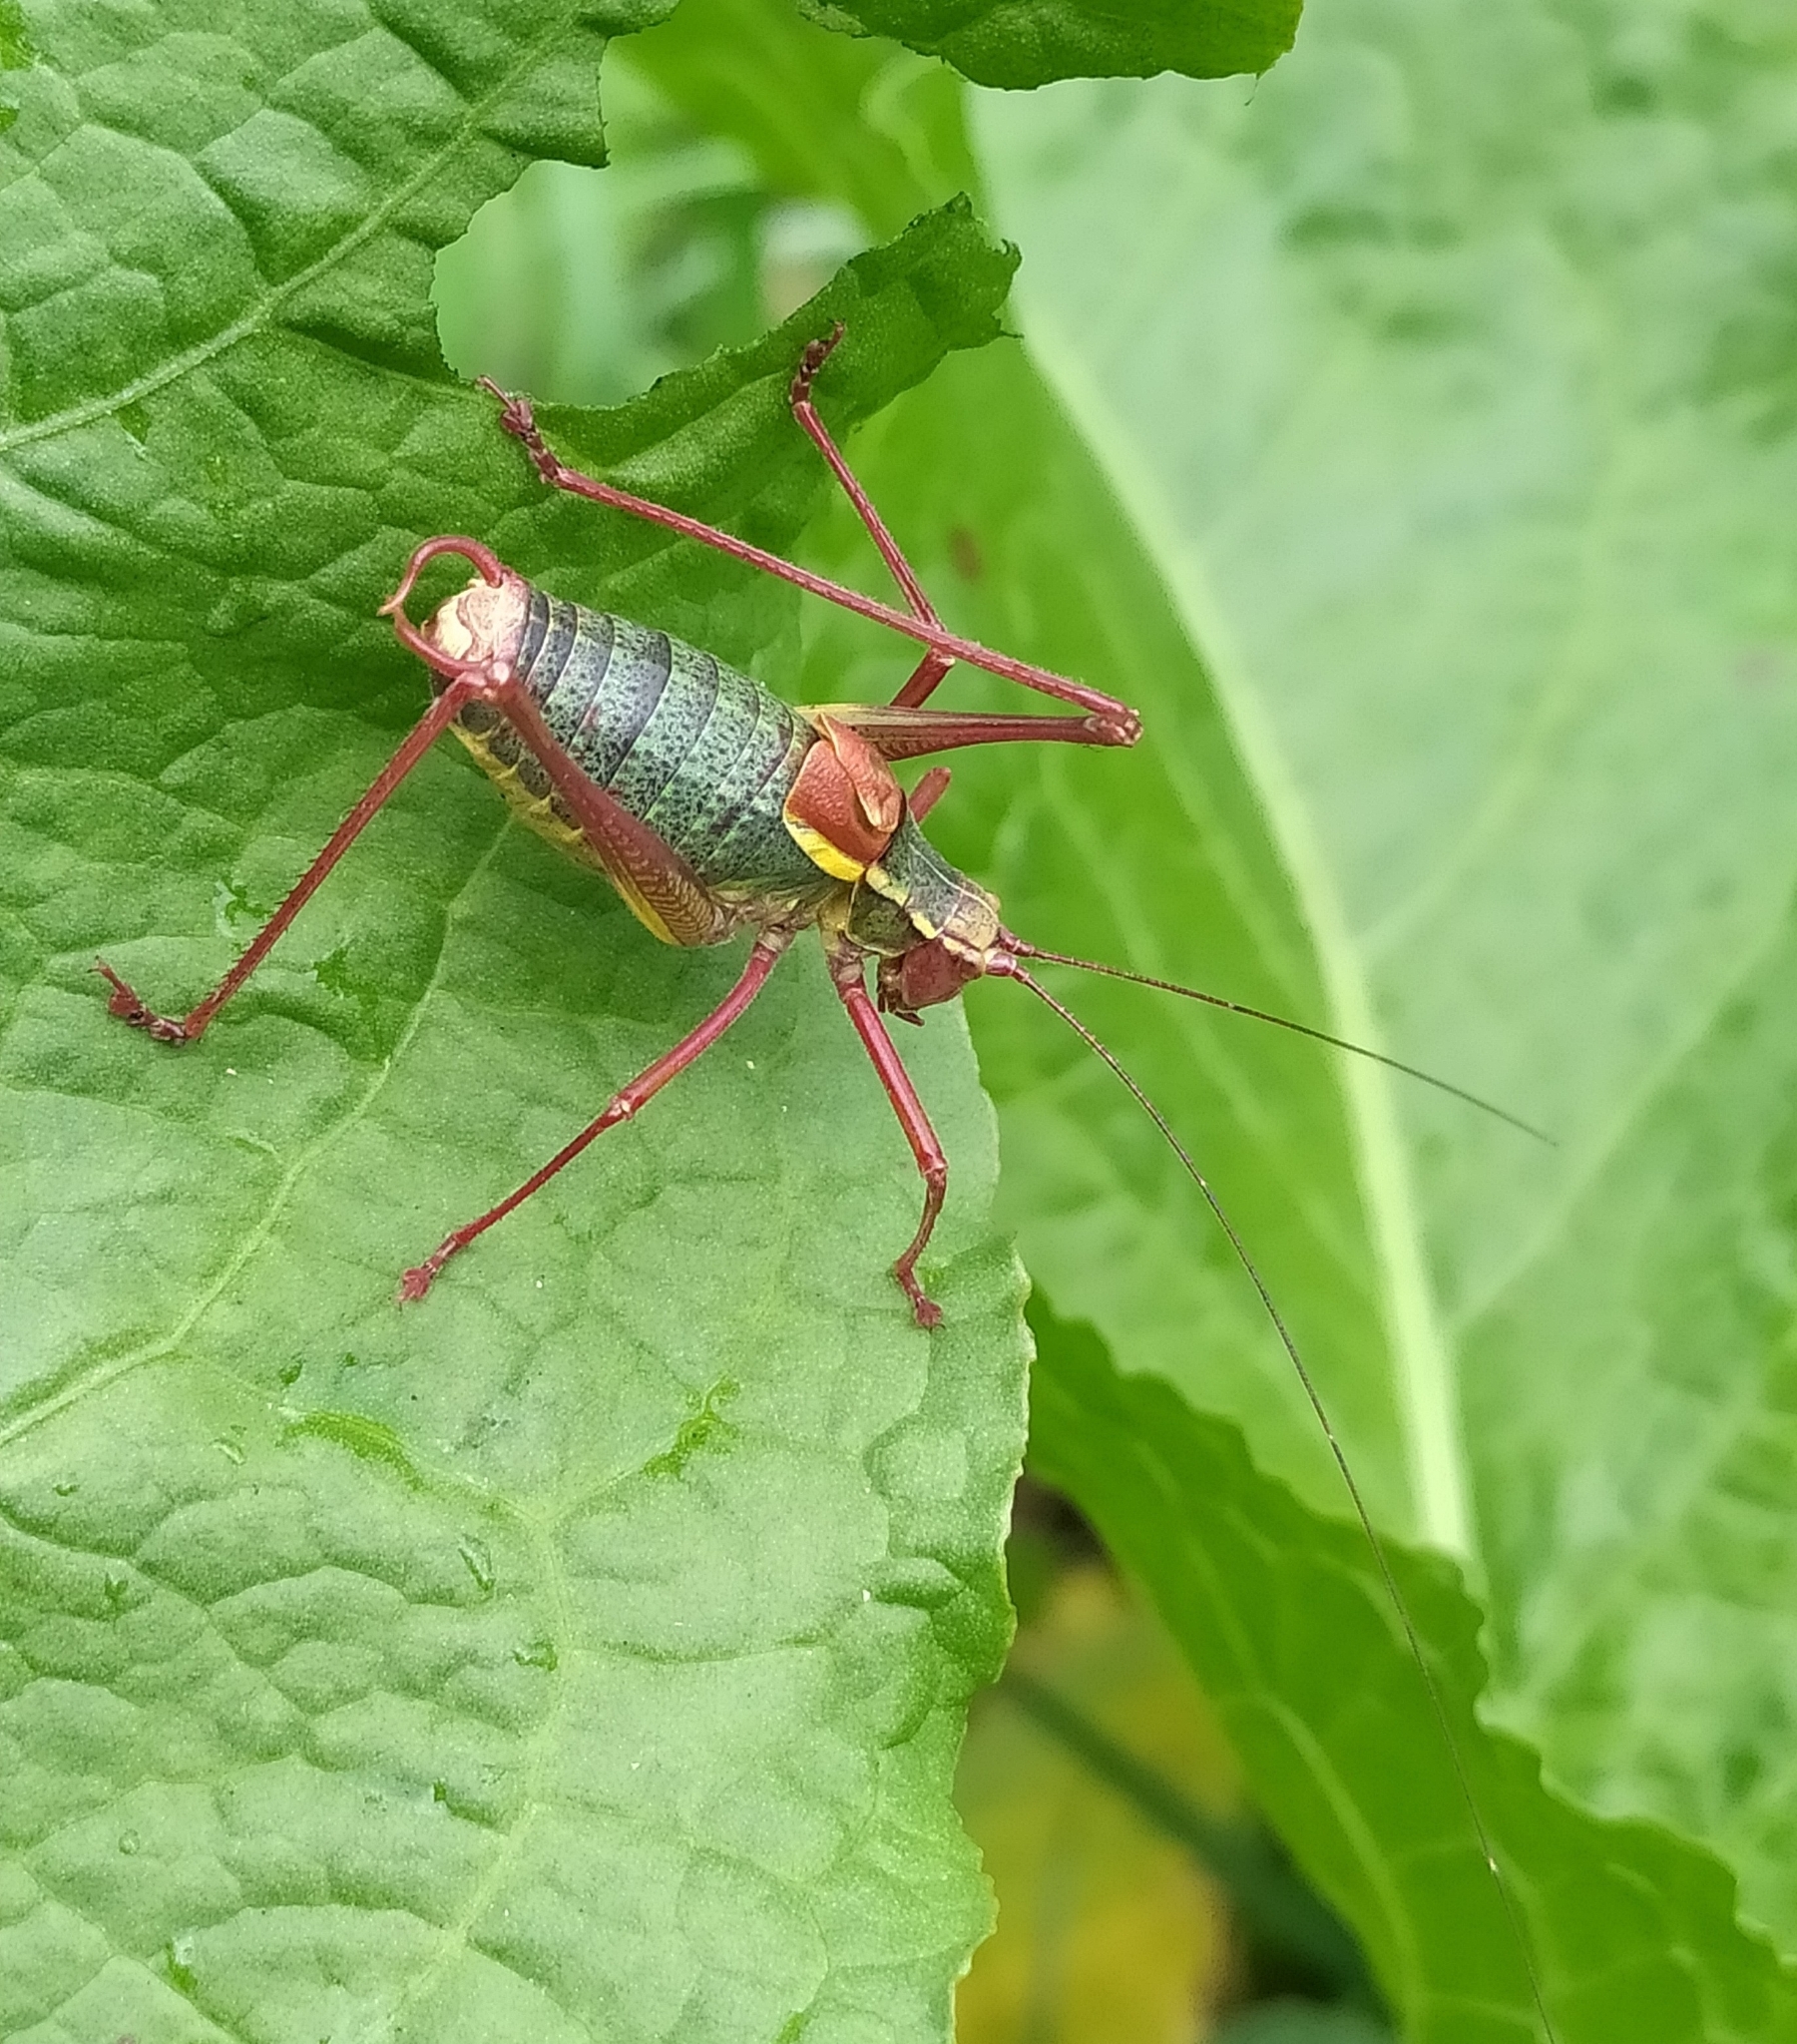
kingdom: Animalia
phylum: Arthropoda
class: Insecta
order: Orthoptera
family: Tettigoniidae
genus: Barbitistes
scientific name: Barbitistes serricauda
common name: Saw-tailed bush-cricket
